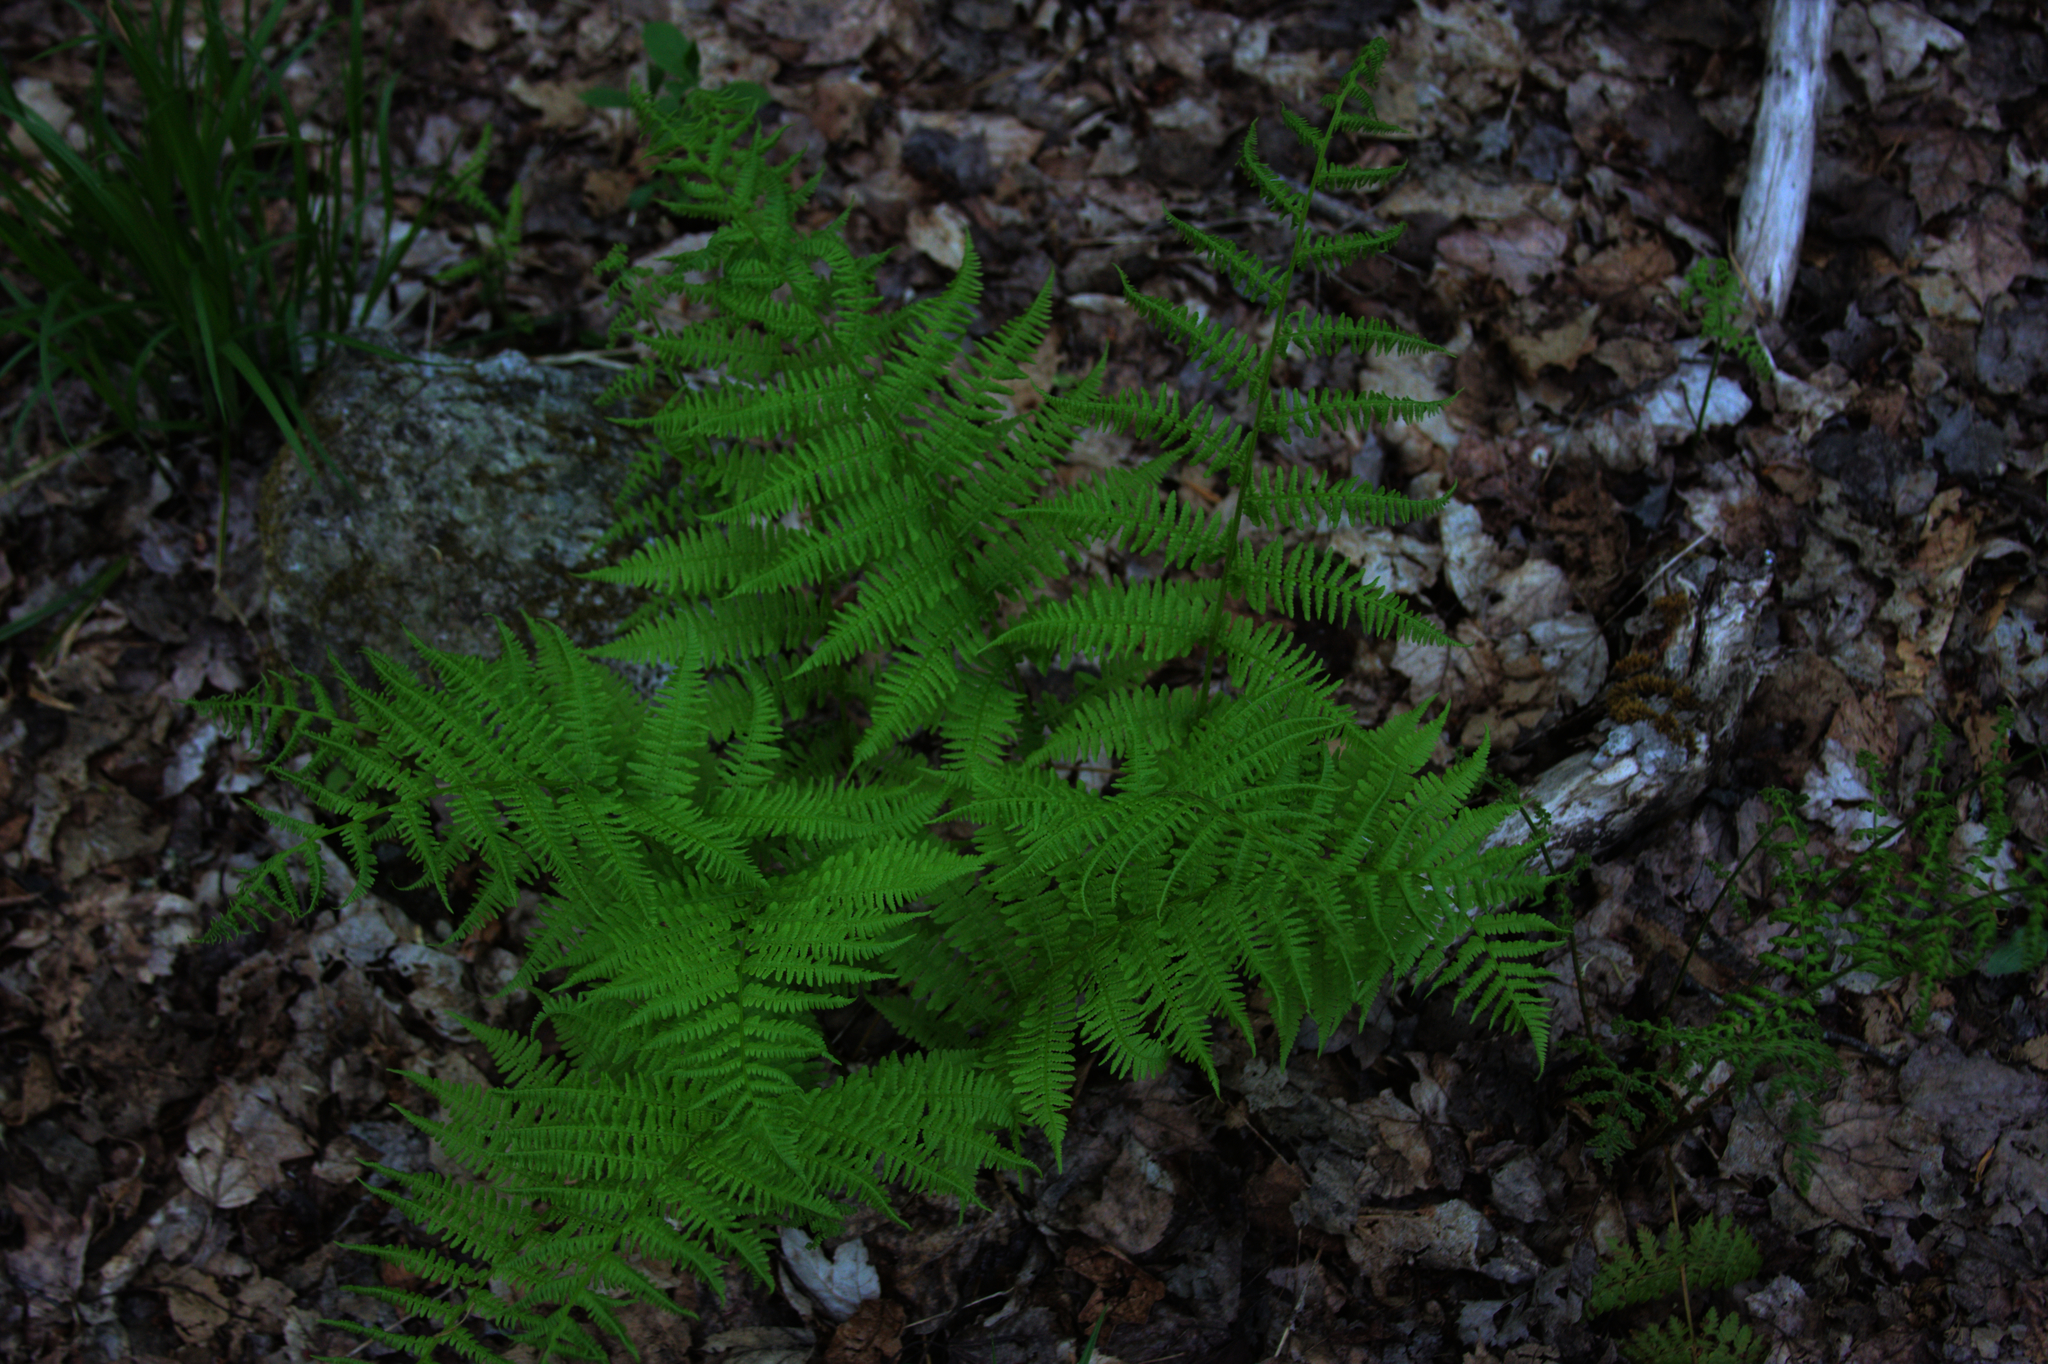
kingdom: Plantae
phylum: Tracheophyta
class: Polypodiopsida
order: Polypodiales
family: Athyriaceae
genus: Athyrium
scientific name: Athyrium angustum
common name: Northern lady fern
